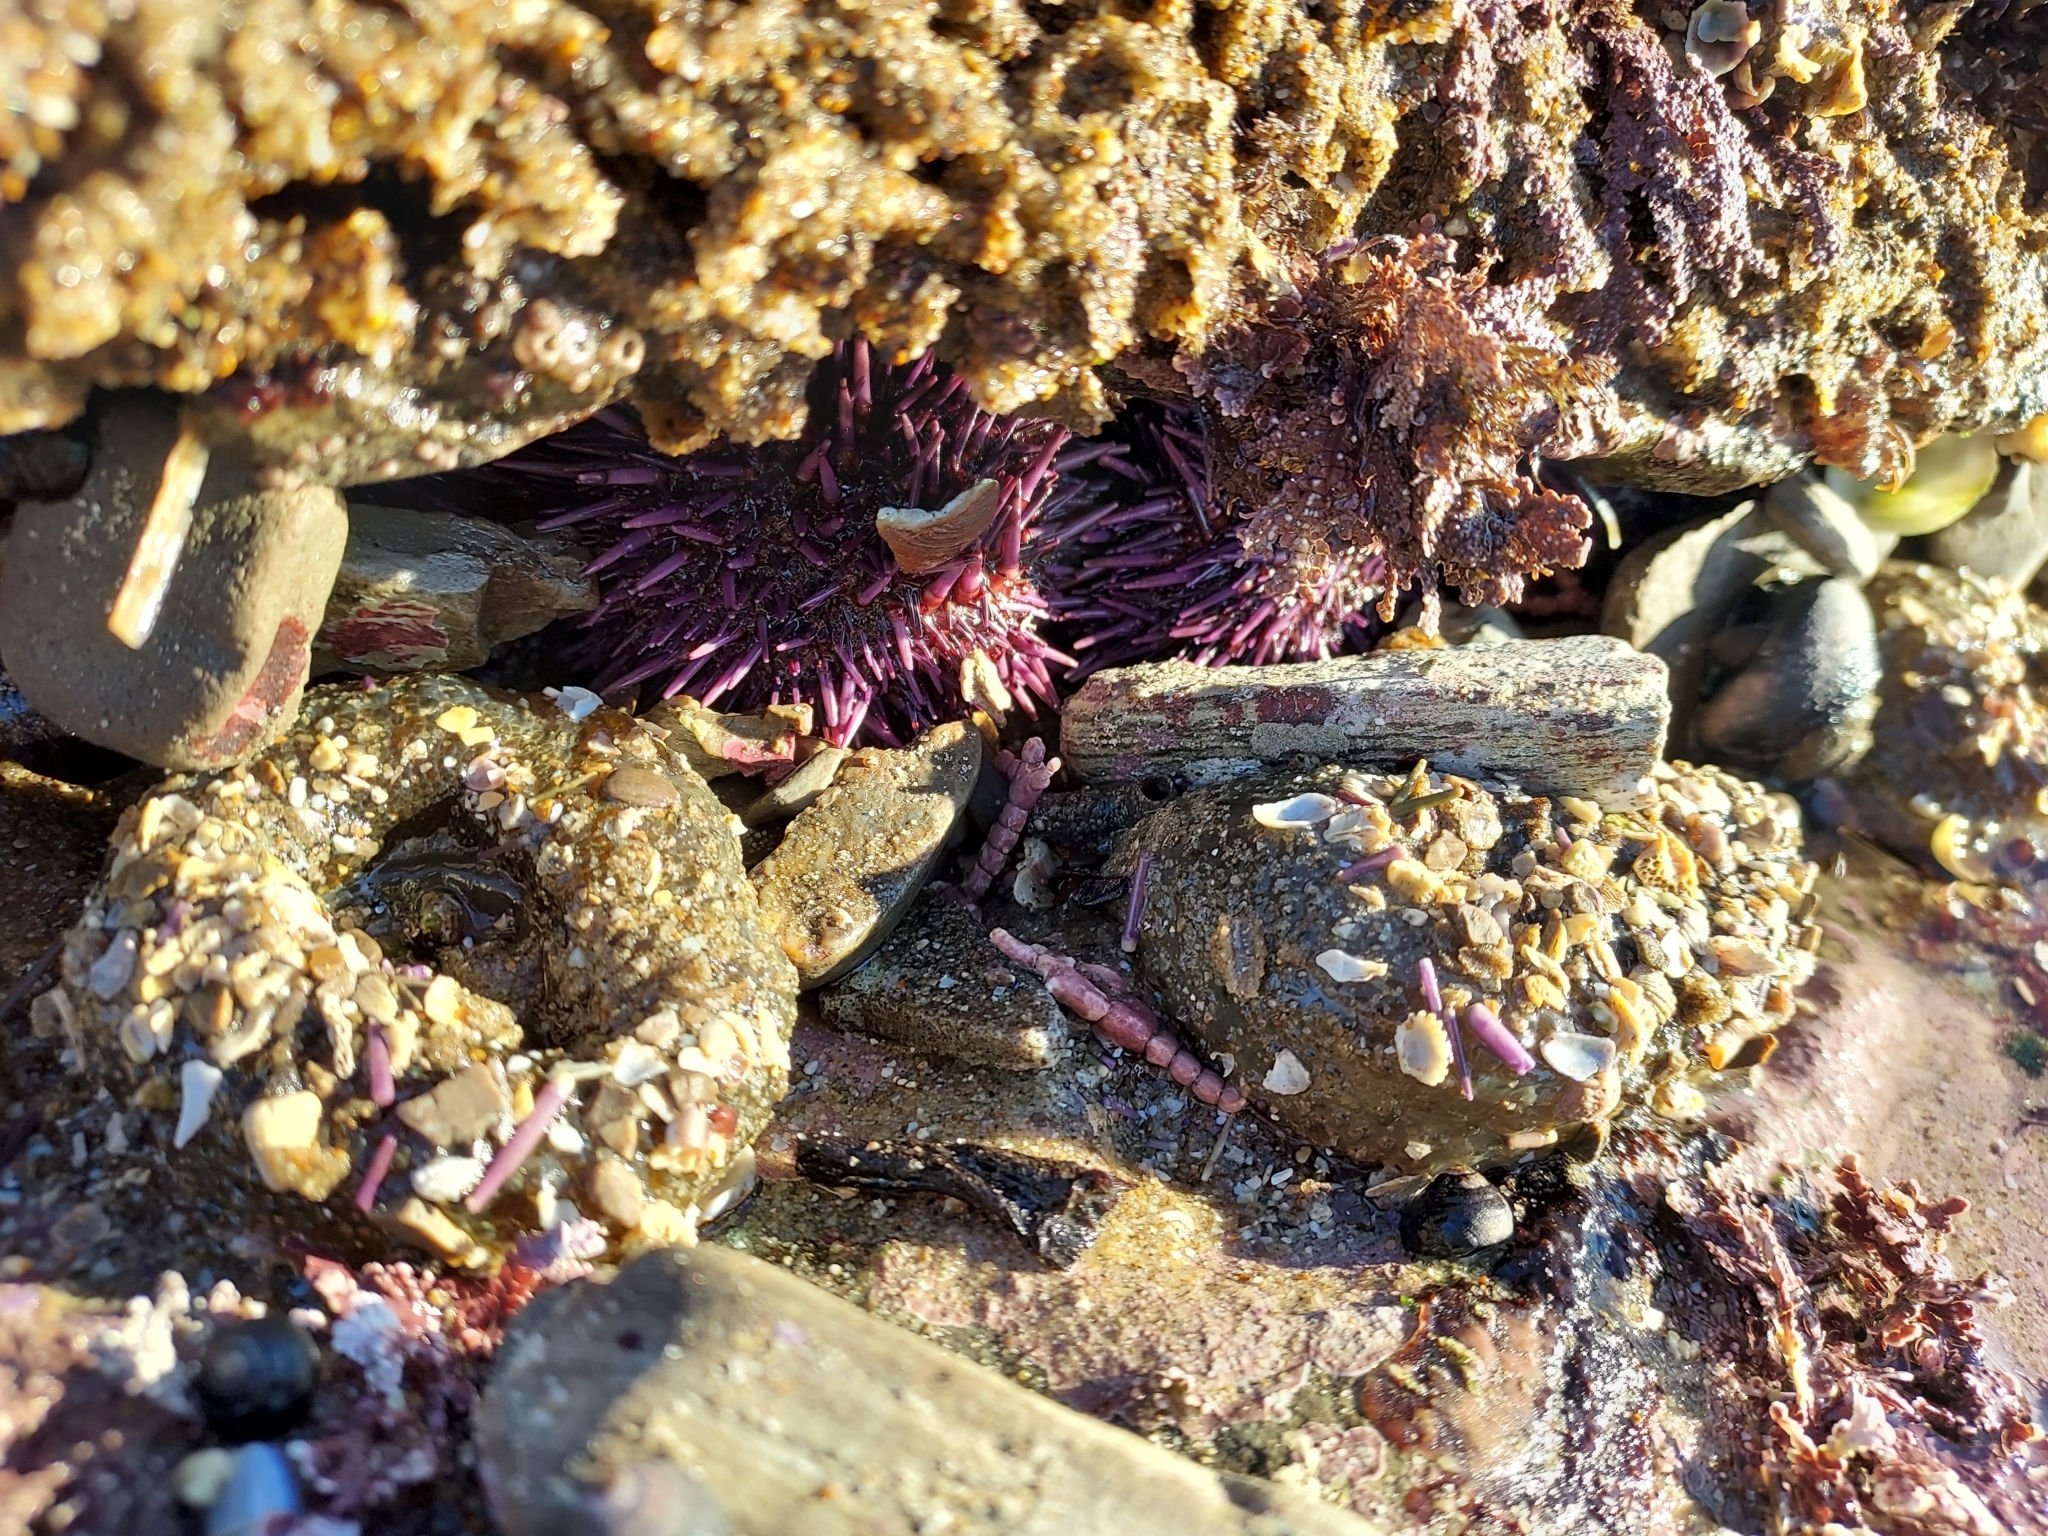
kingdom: Animalia
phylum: Echinodermata
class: Echinoidea
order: Camarodonta
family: Strongylocentrotidae
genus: Strongylocentrotus
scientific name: Strongylocentrotus purpuratus
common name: Purple sea urchin
